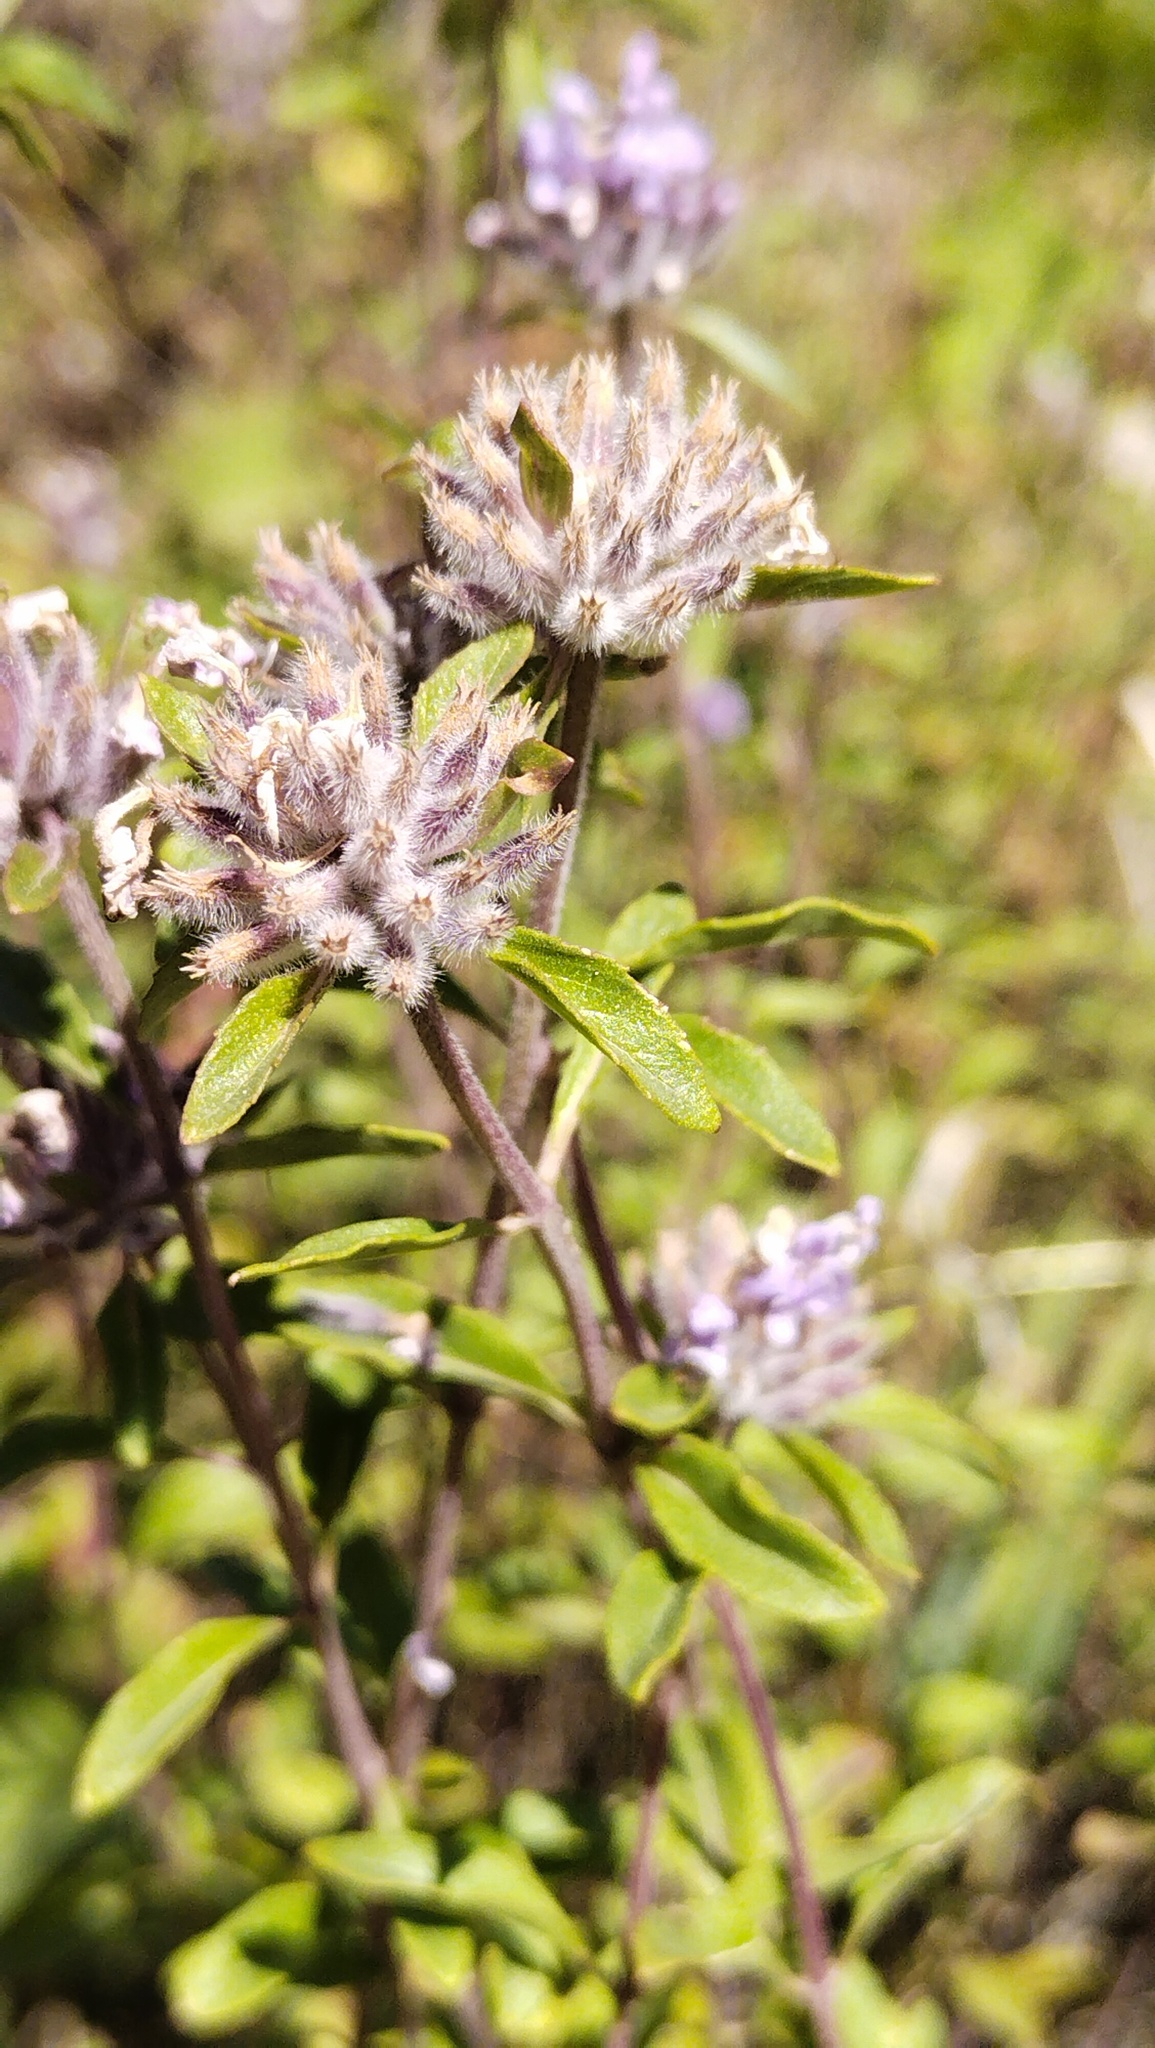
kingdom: Plantae
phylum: Tracheophyta
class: Magnoliopsida
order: Lamiales
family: Lamiaceae
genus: Ziziphora
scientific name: Ziziphora clinopodioides
